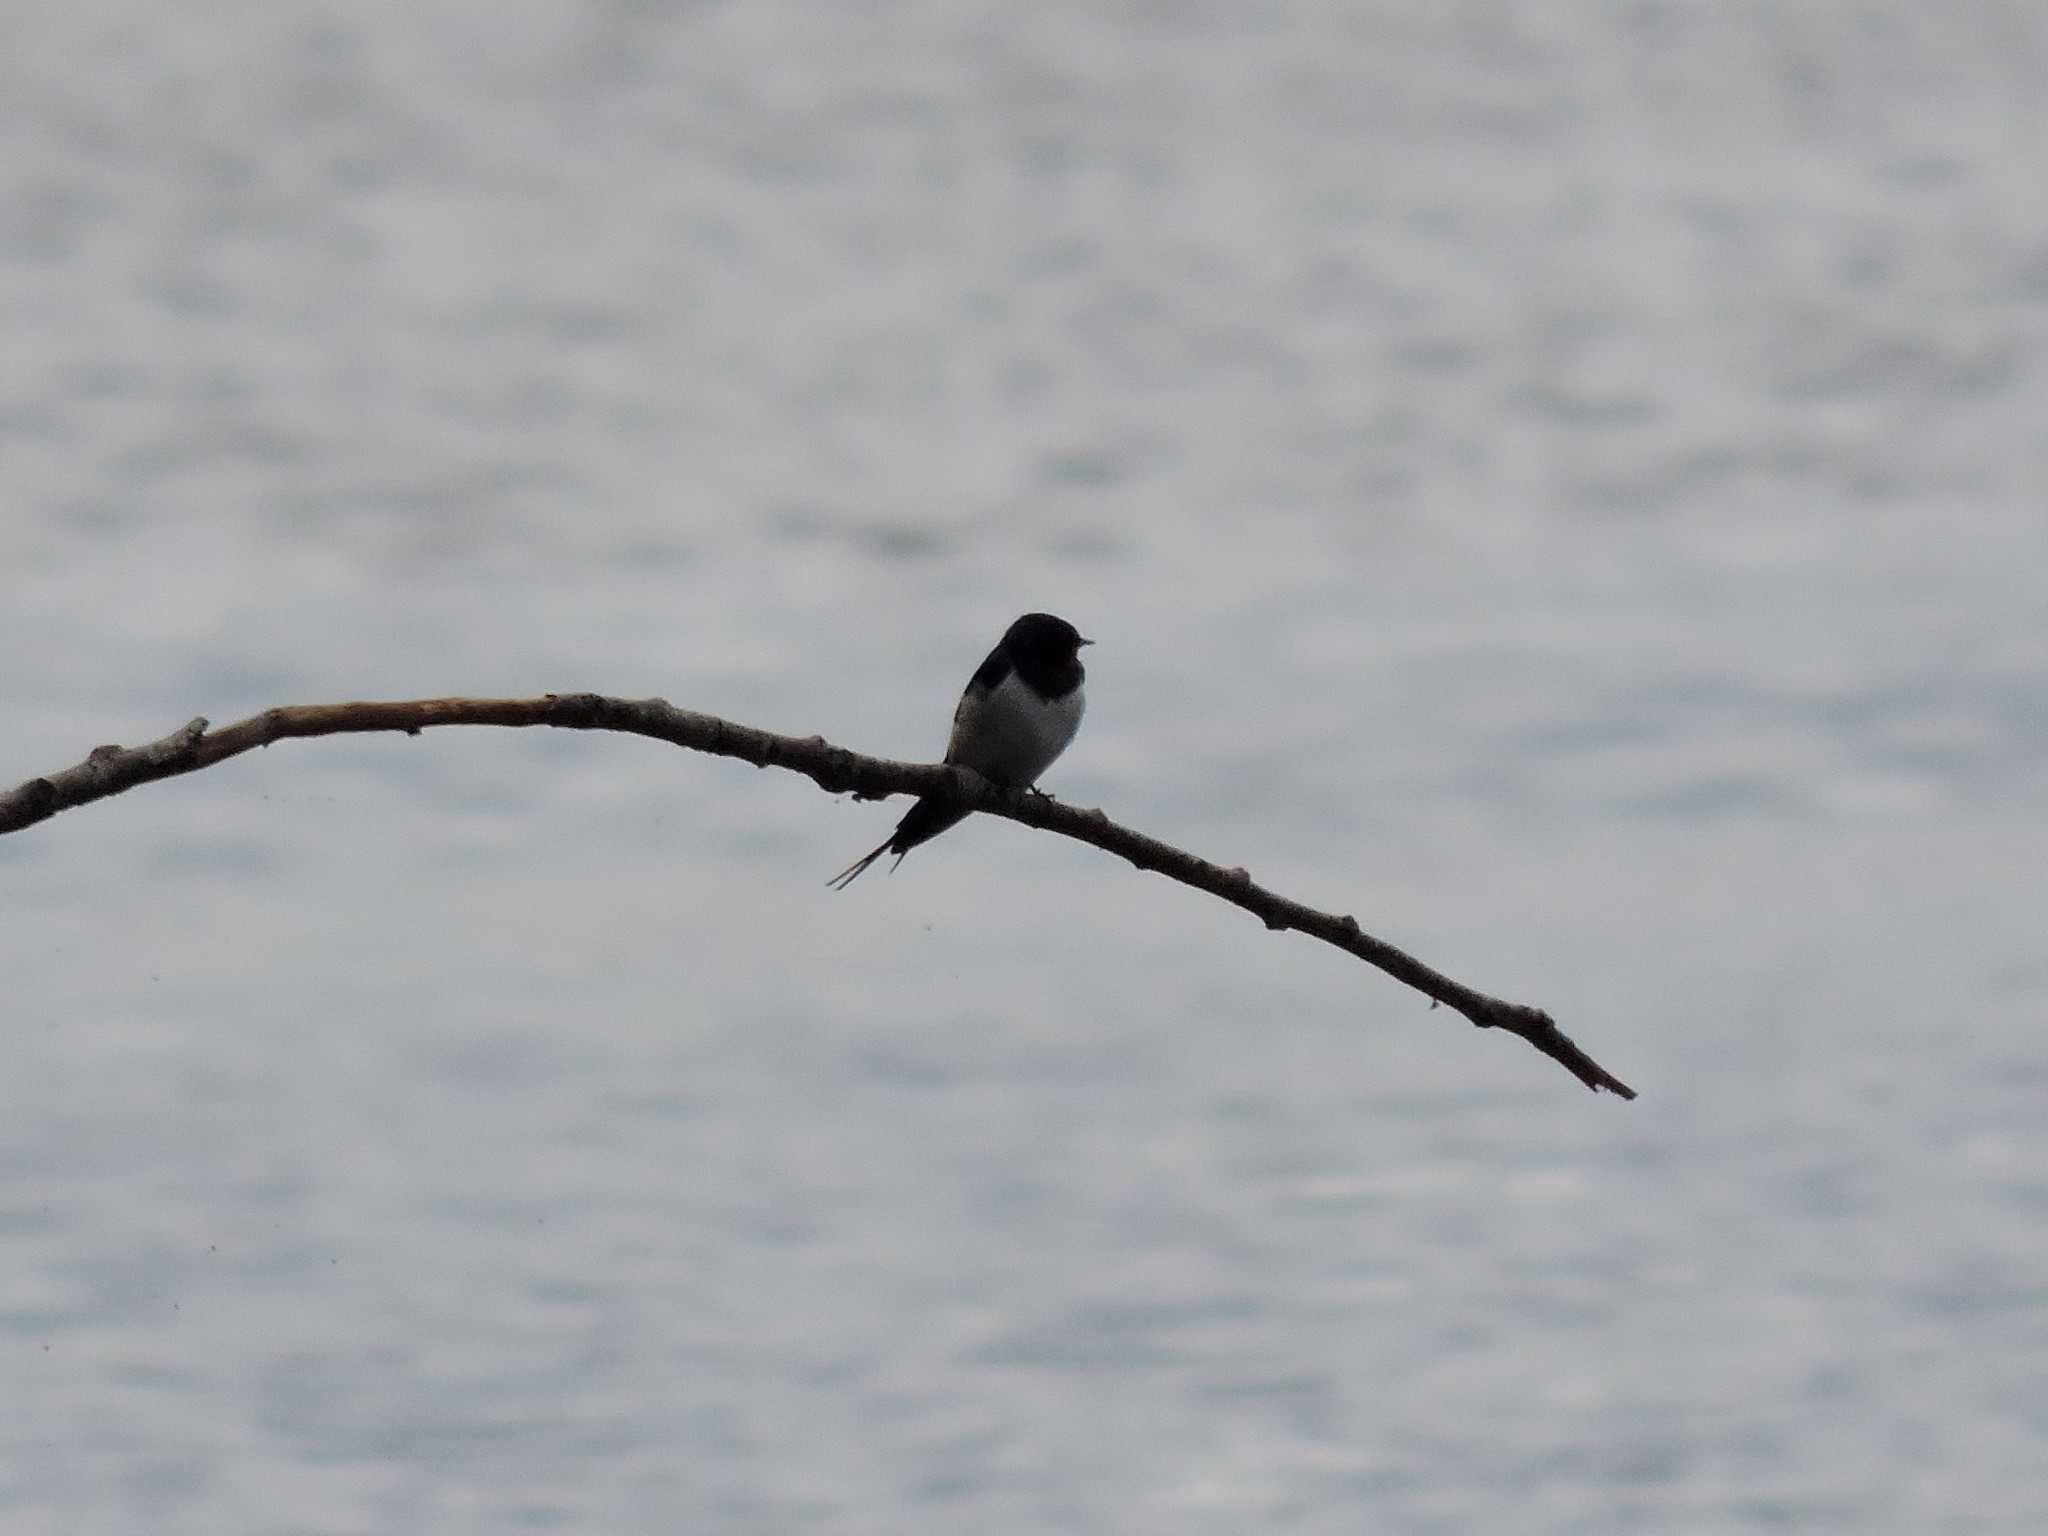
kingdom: Animalia
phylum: Chordata
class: Aves
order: Passeriformes
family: Hirundinidae
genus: Hirundo
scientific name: Hirundo rustica
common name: Barn swallow
